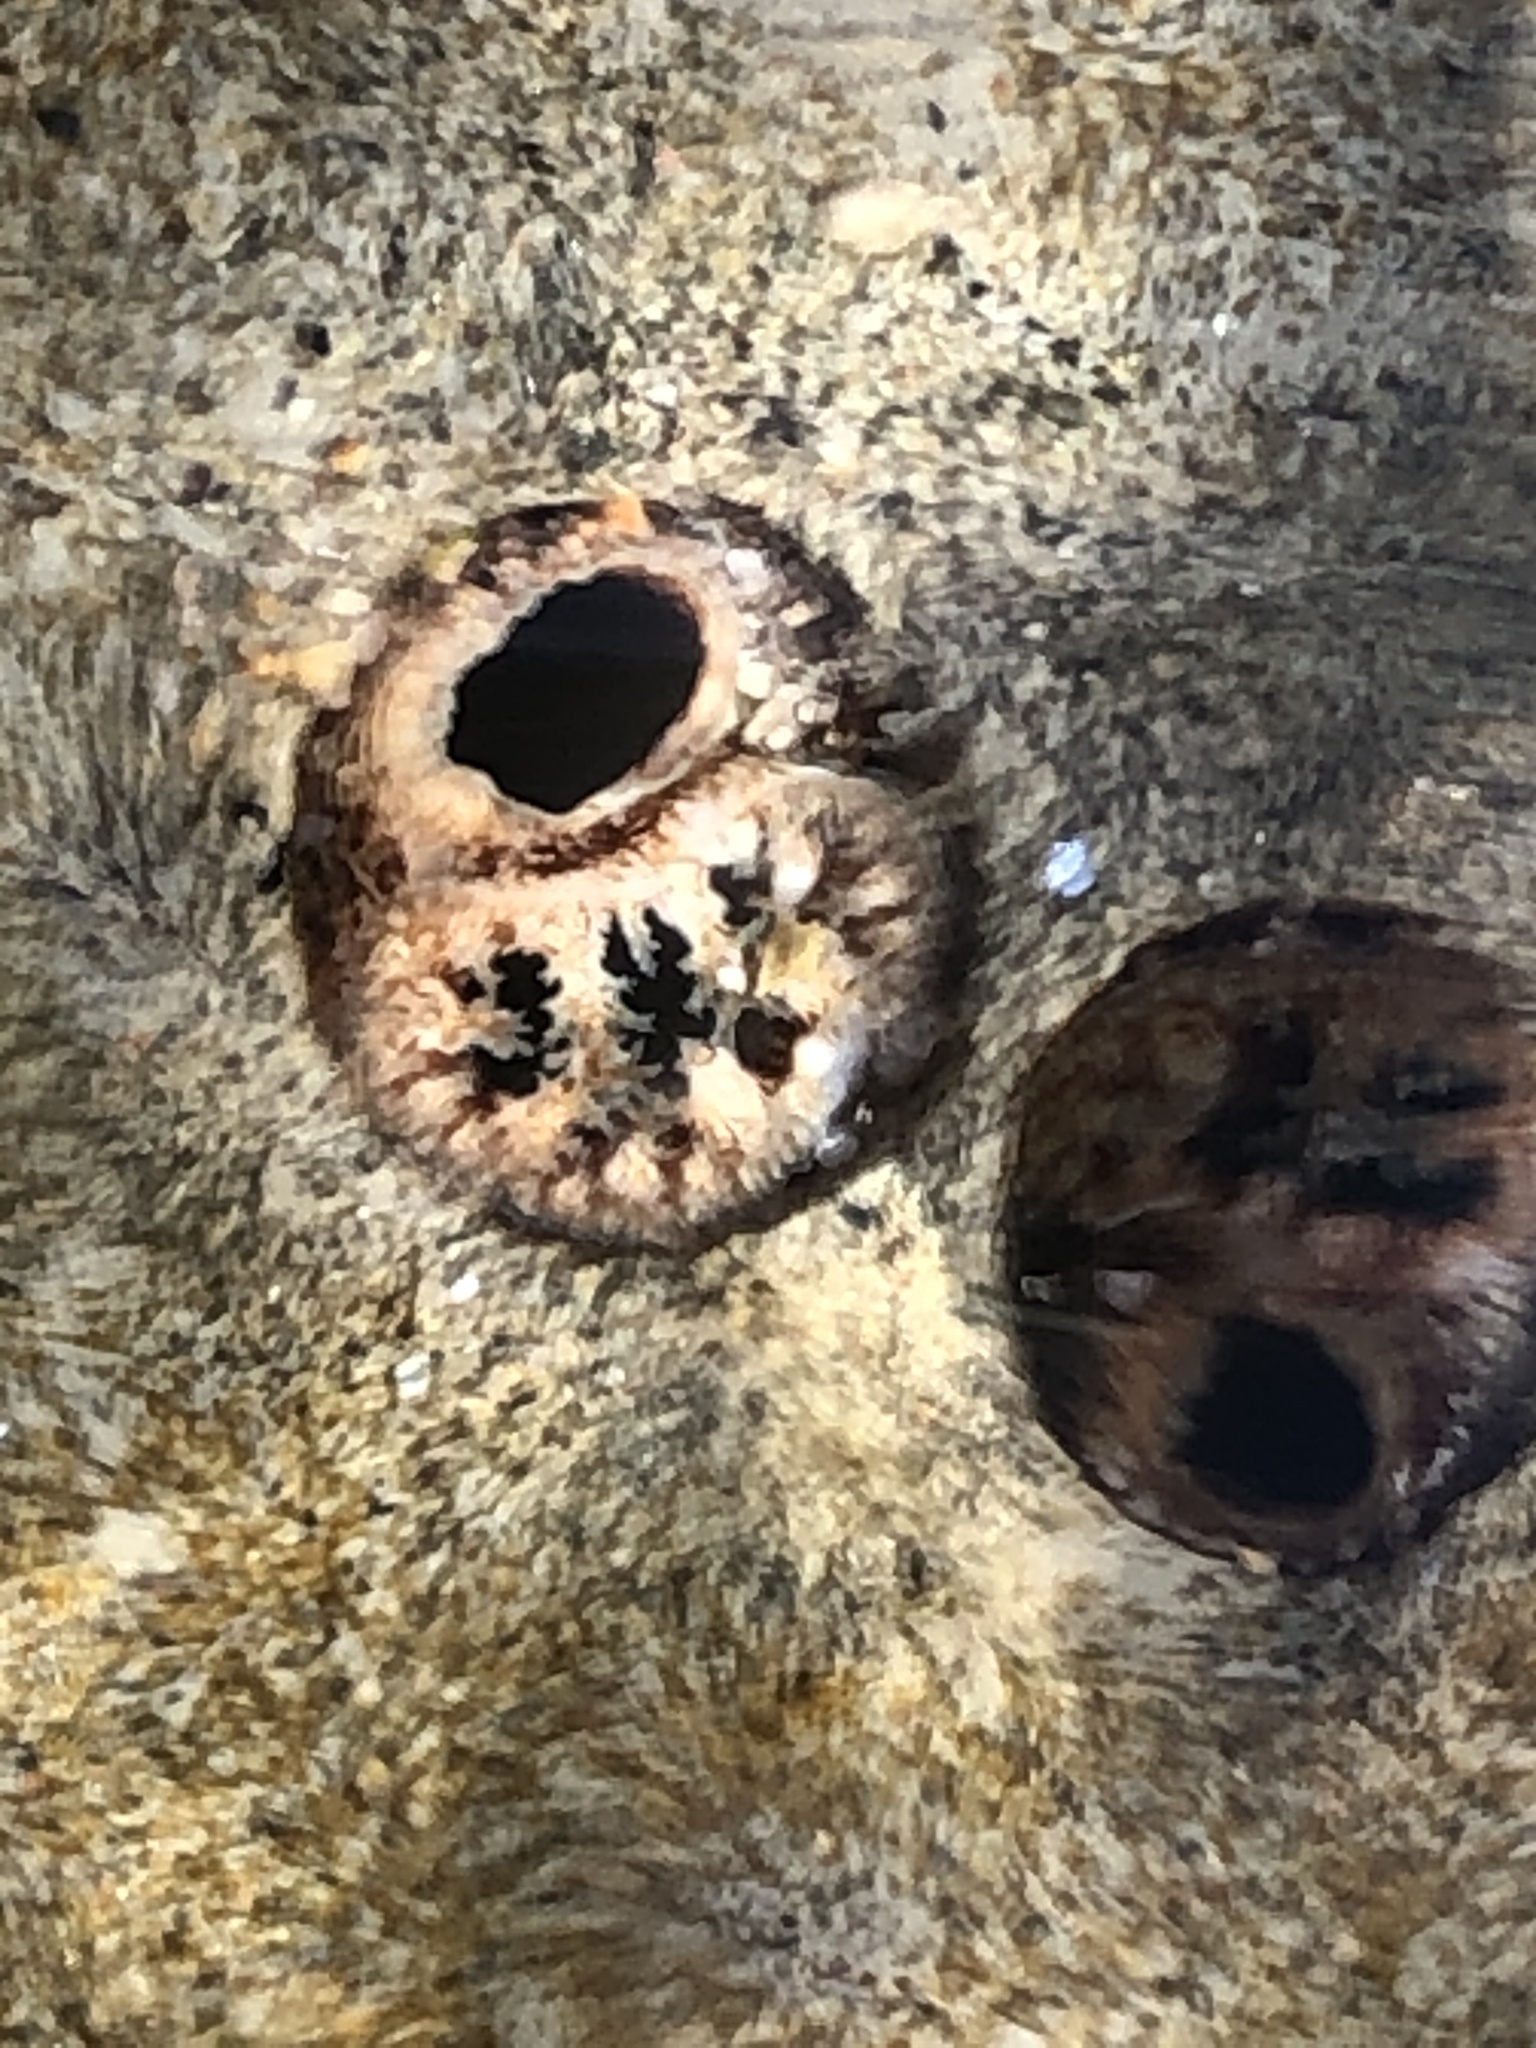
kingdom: Animalia
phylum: Mollusca
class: Bivalvia
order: Myida
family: Pholadidae
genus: Parapholas
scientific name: Parapholas californica
